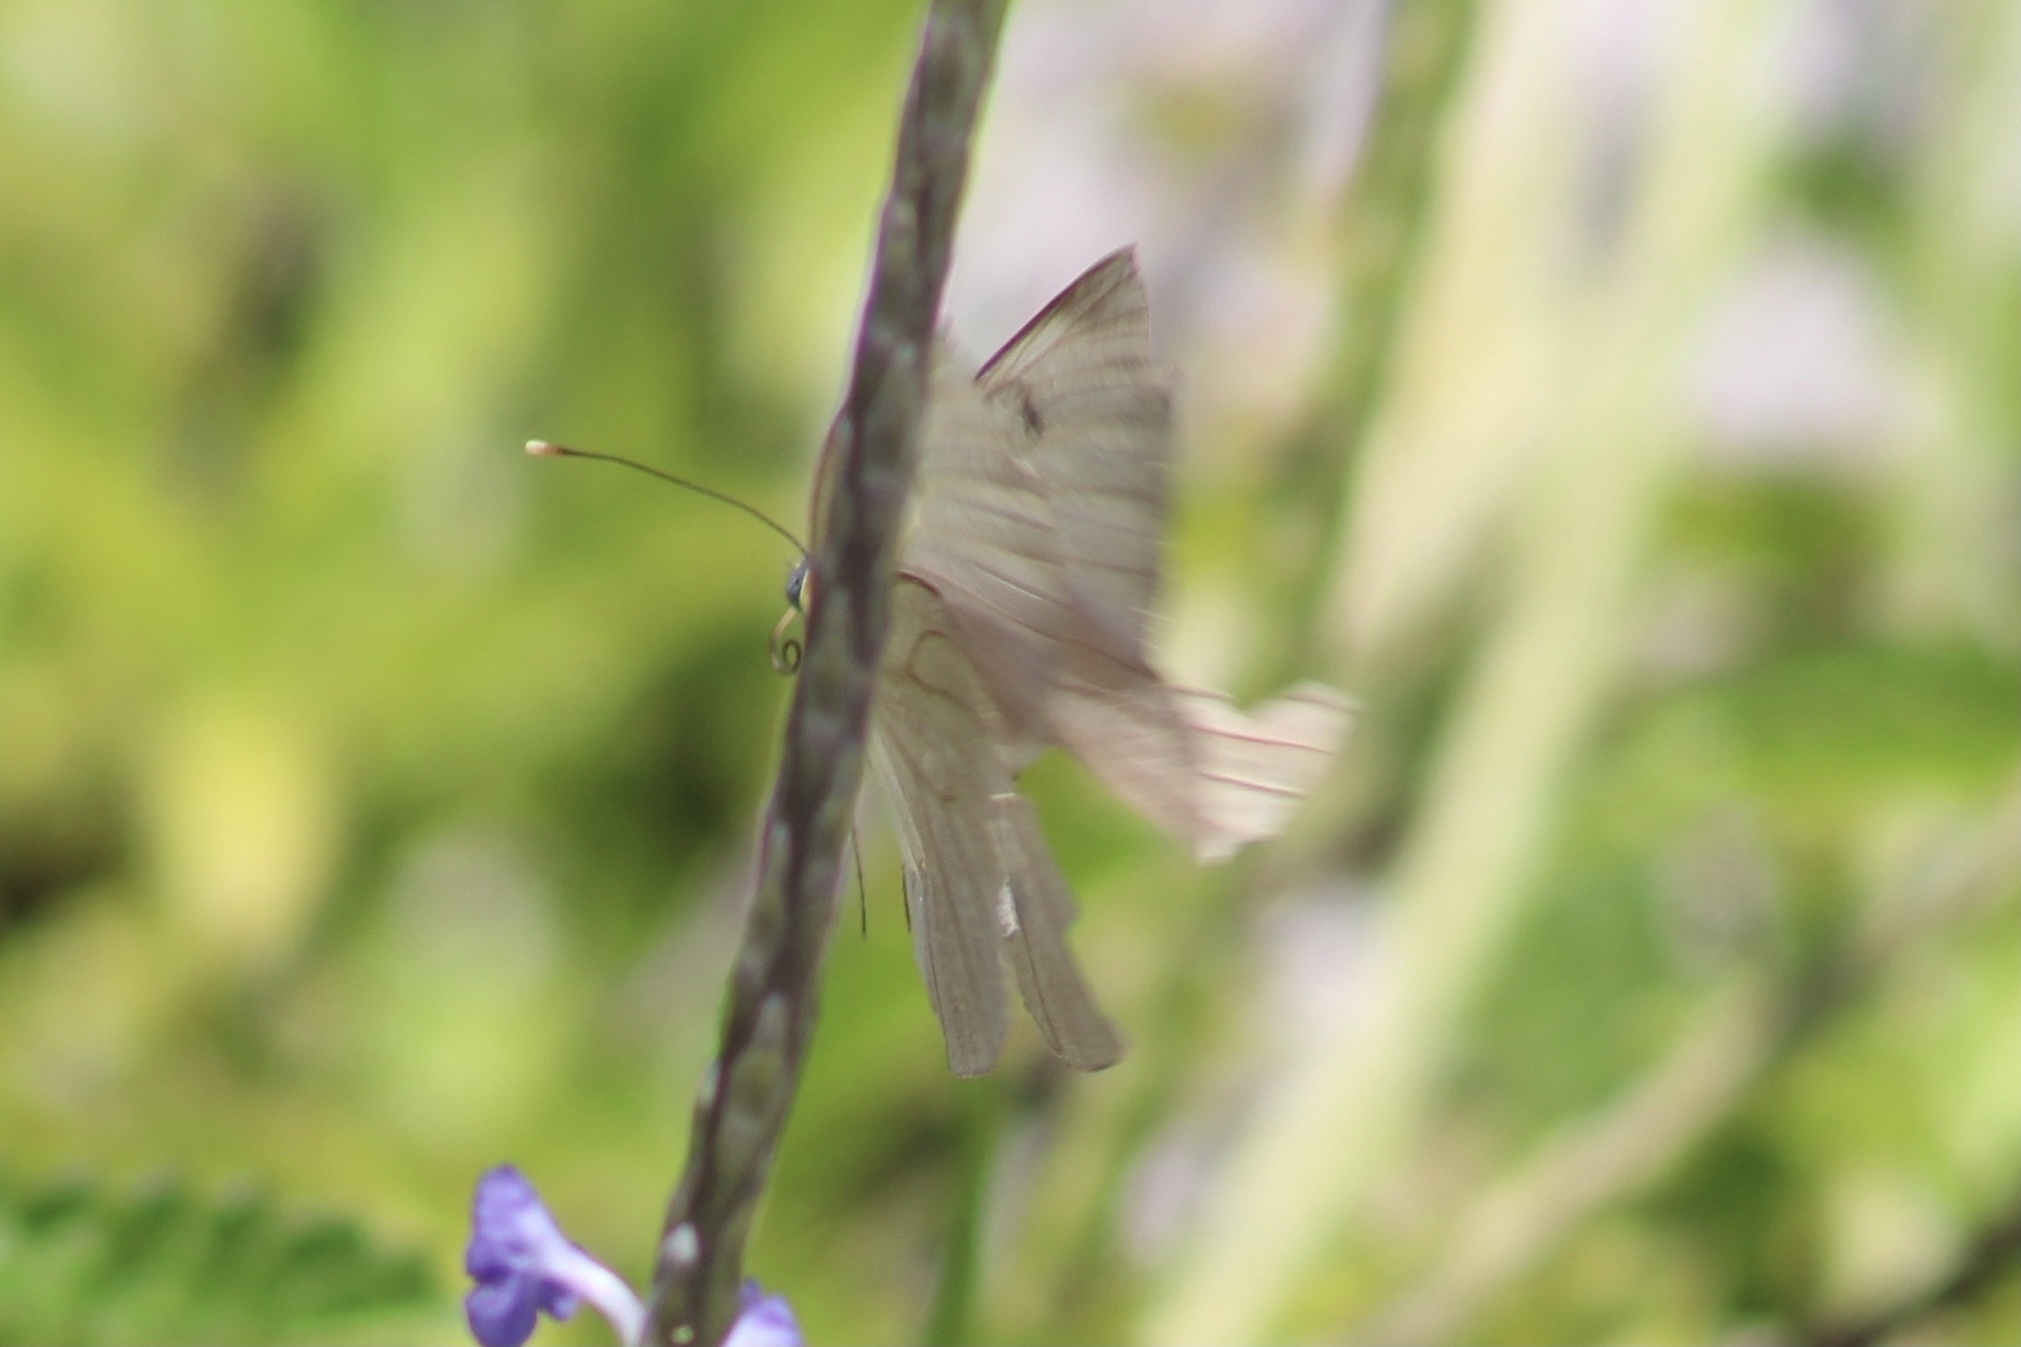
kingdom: Animalia
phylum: Arthropoda
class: Insecta
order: Lepidoptera
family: Pieridae
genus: Ascia
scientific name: Ascia monuste
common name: Great southern white
